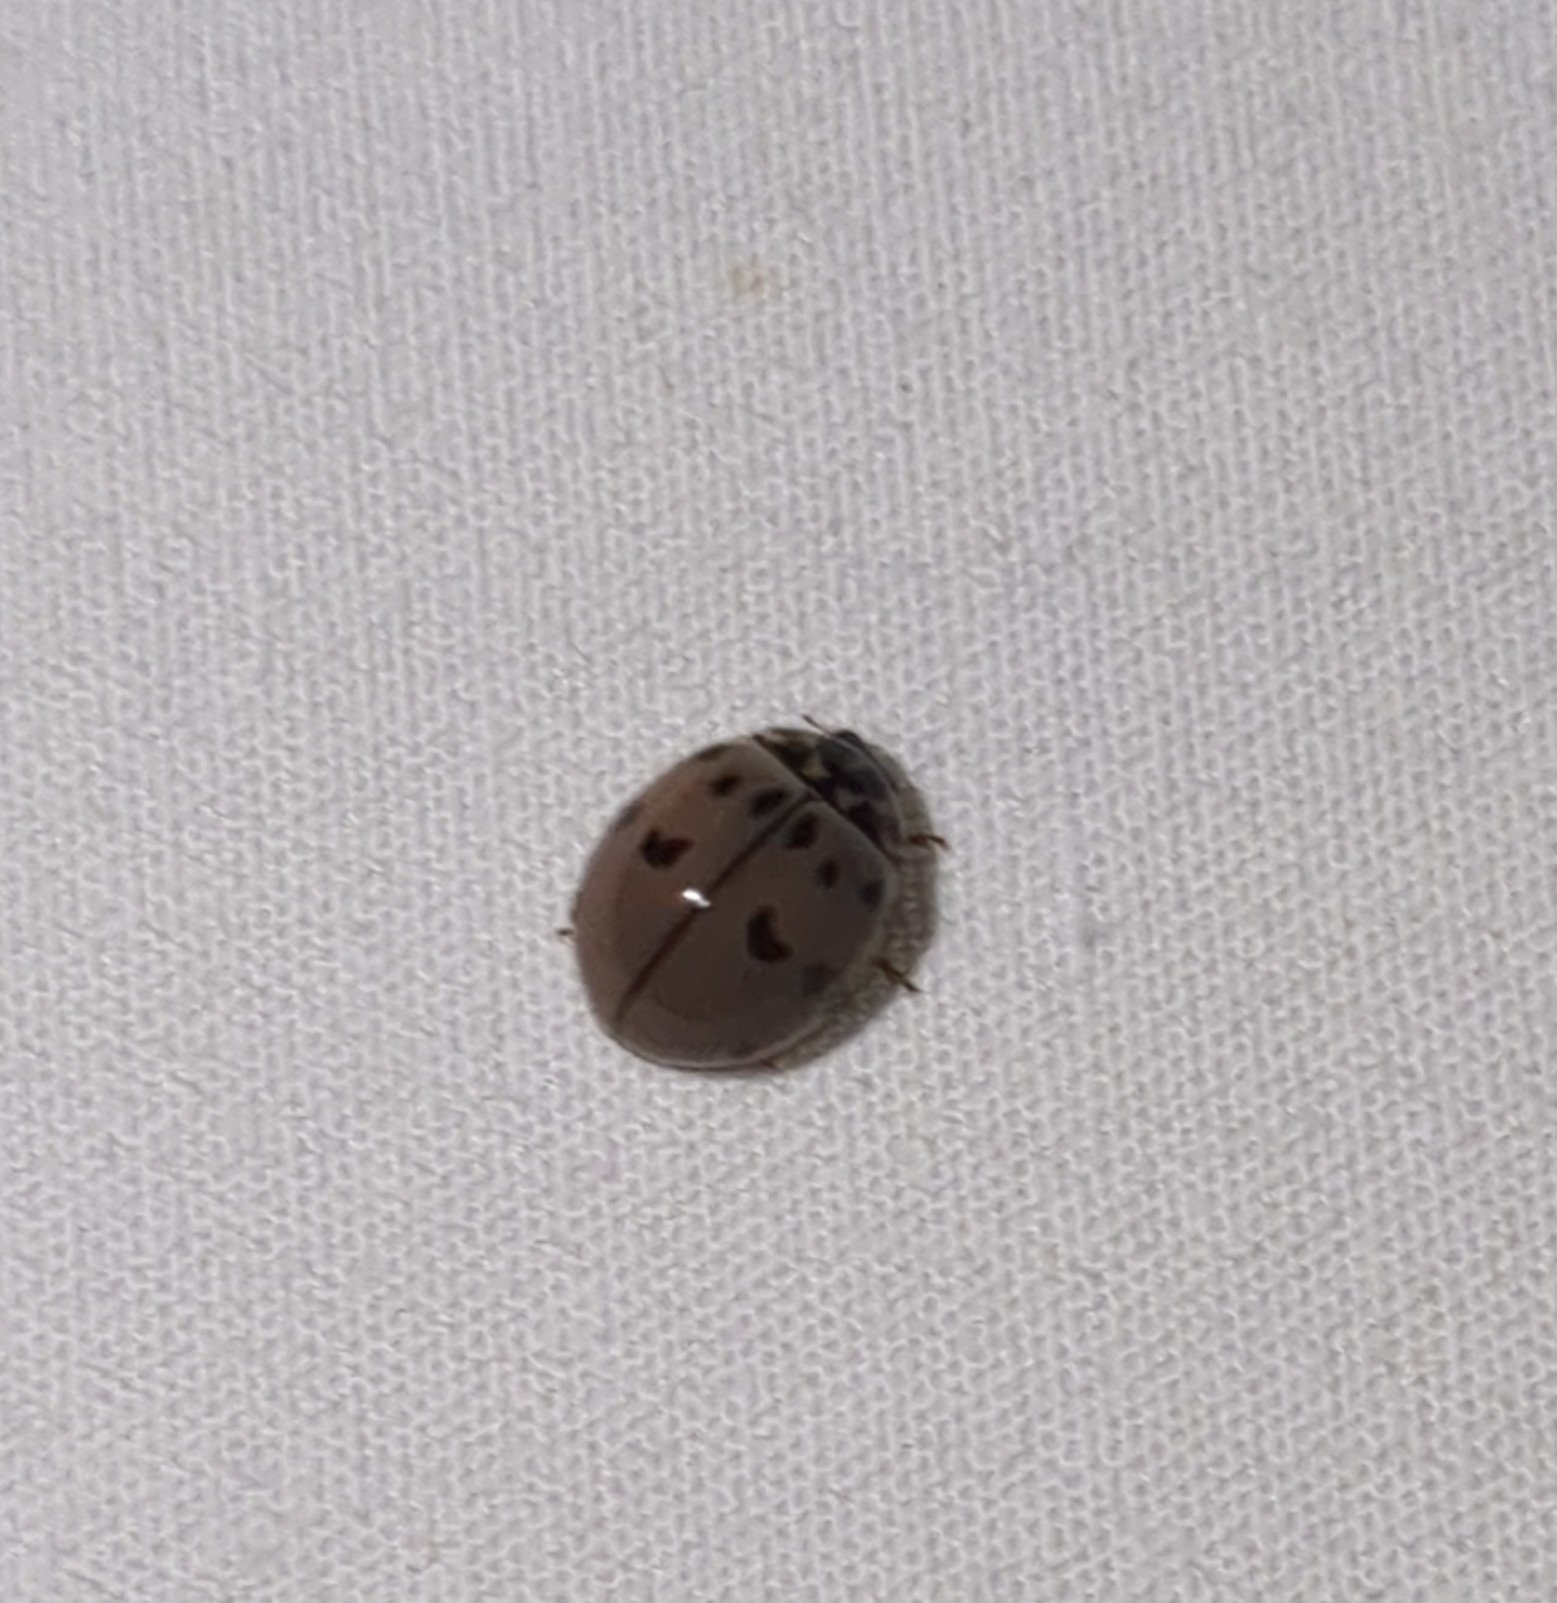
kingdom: Animalia
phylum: Arthropoda
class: Insecta
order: Coleoptera
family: Coccinellidae
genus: Olla
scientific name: Olla v-nigrum
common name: Ashy gray lady beetle
